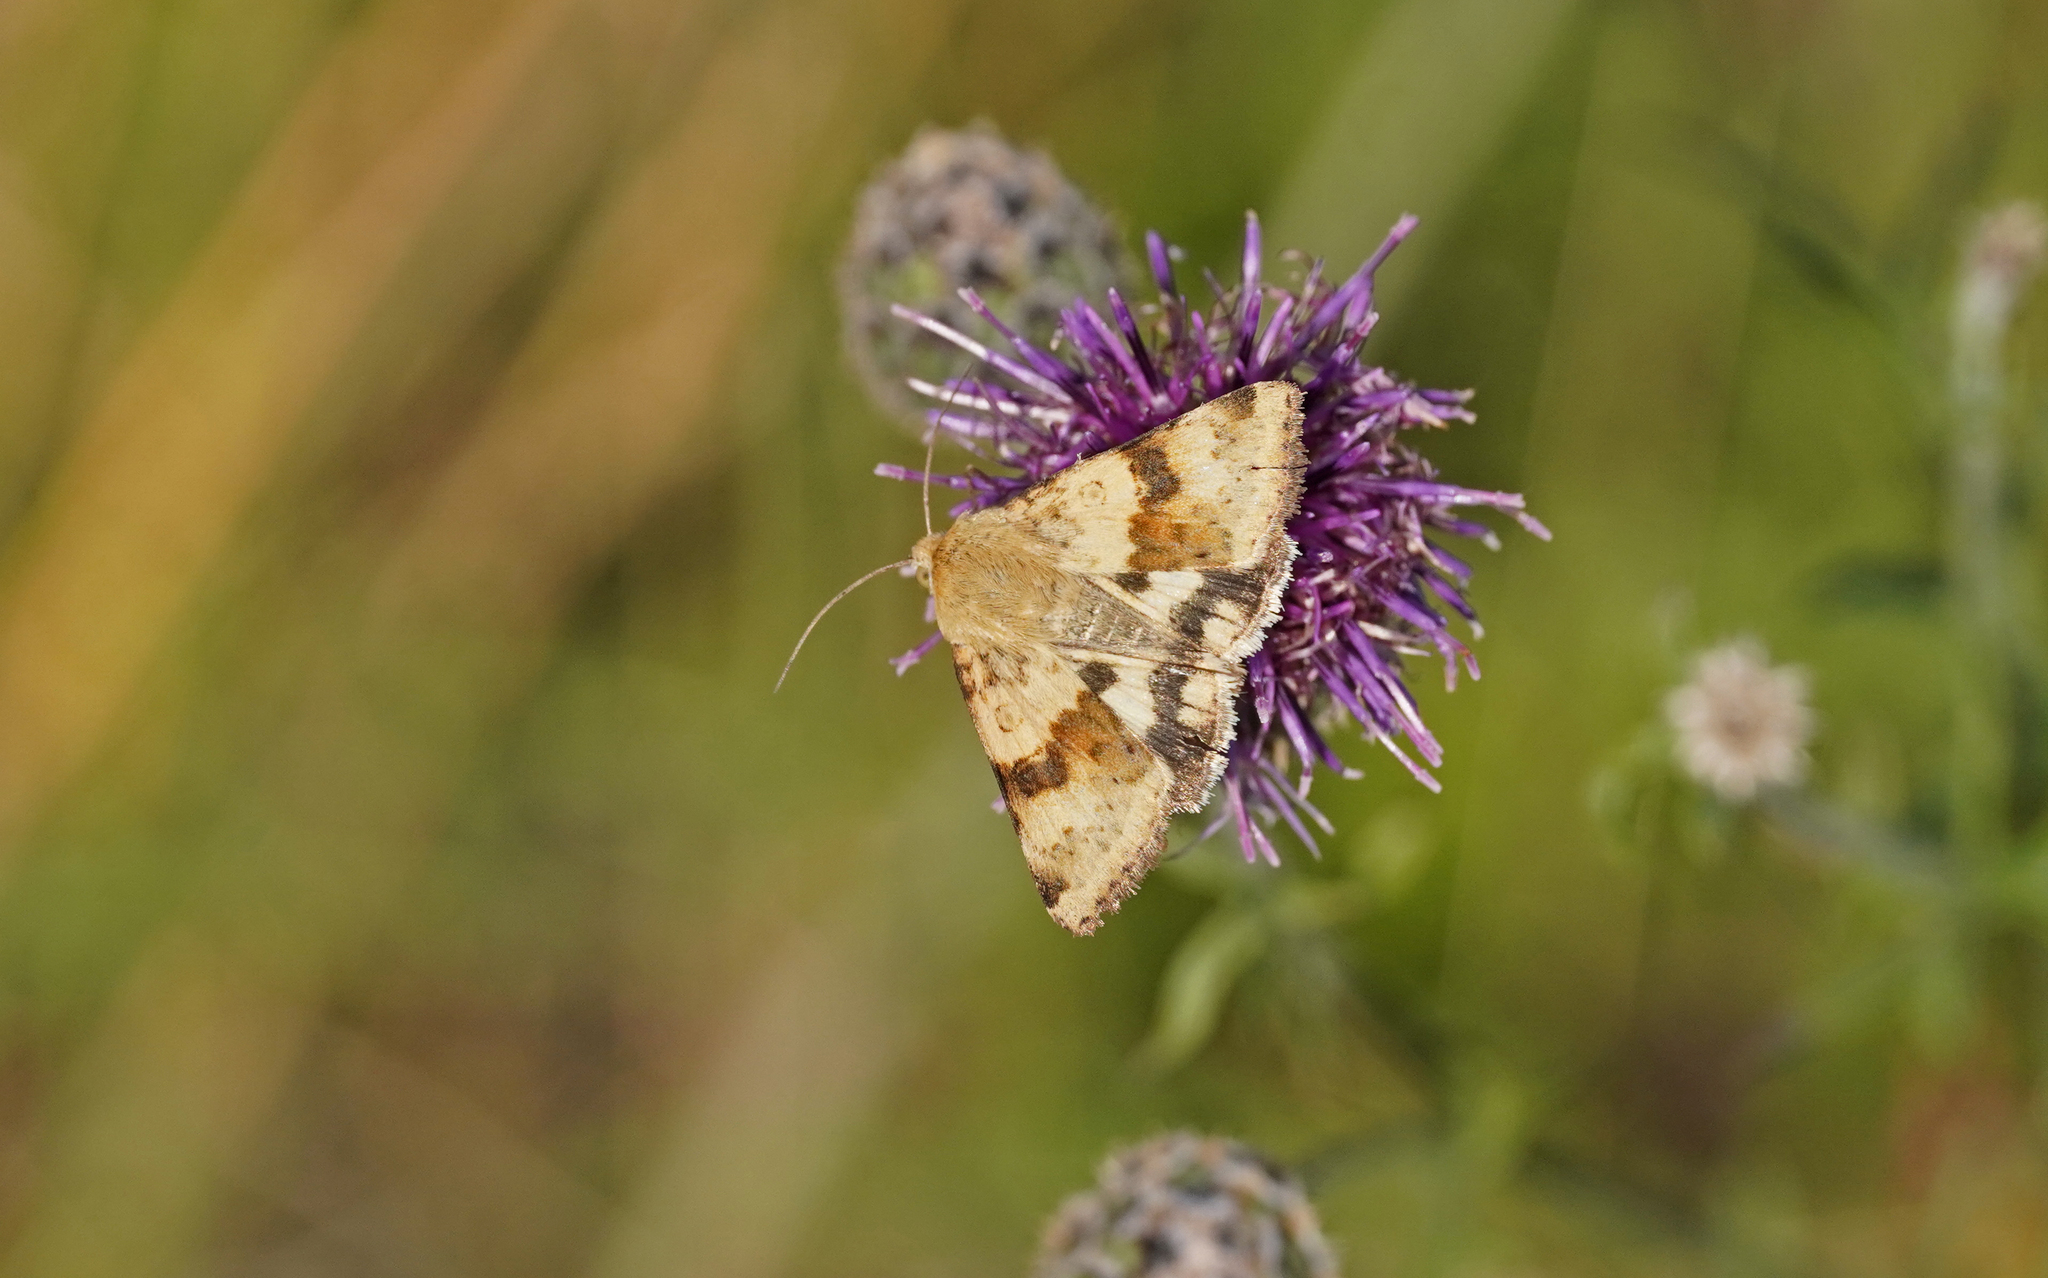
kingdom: Animalia
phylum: Arthropoda
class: Insecta
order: Lepidoptera
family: Noctuidae
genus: Heliothis
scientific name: Heliothis viriplaca
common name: Marbled clover
